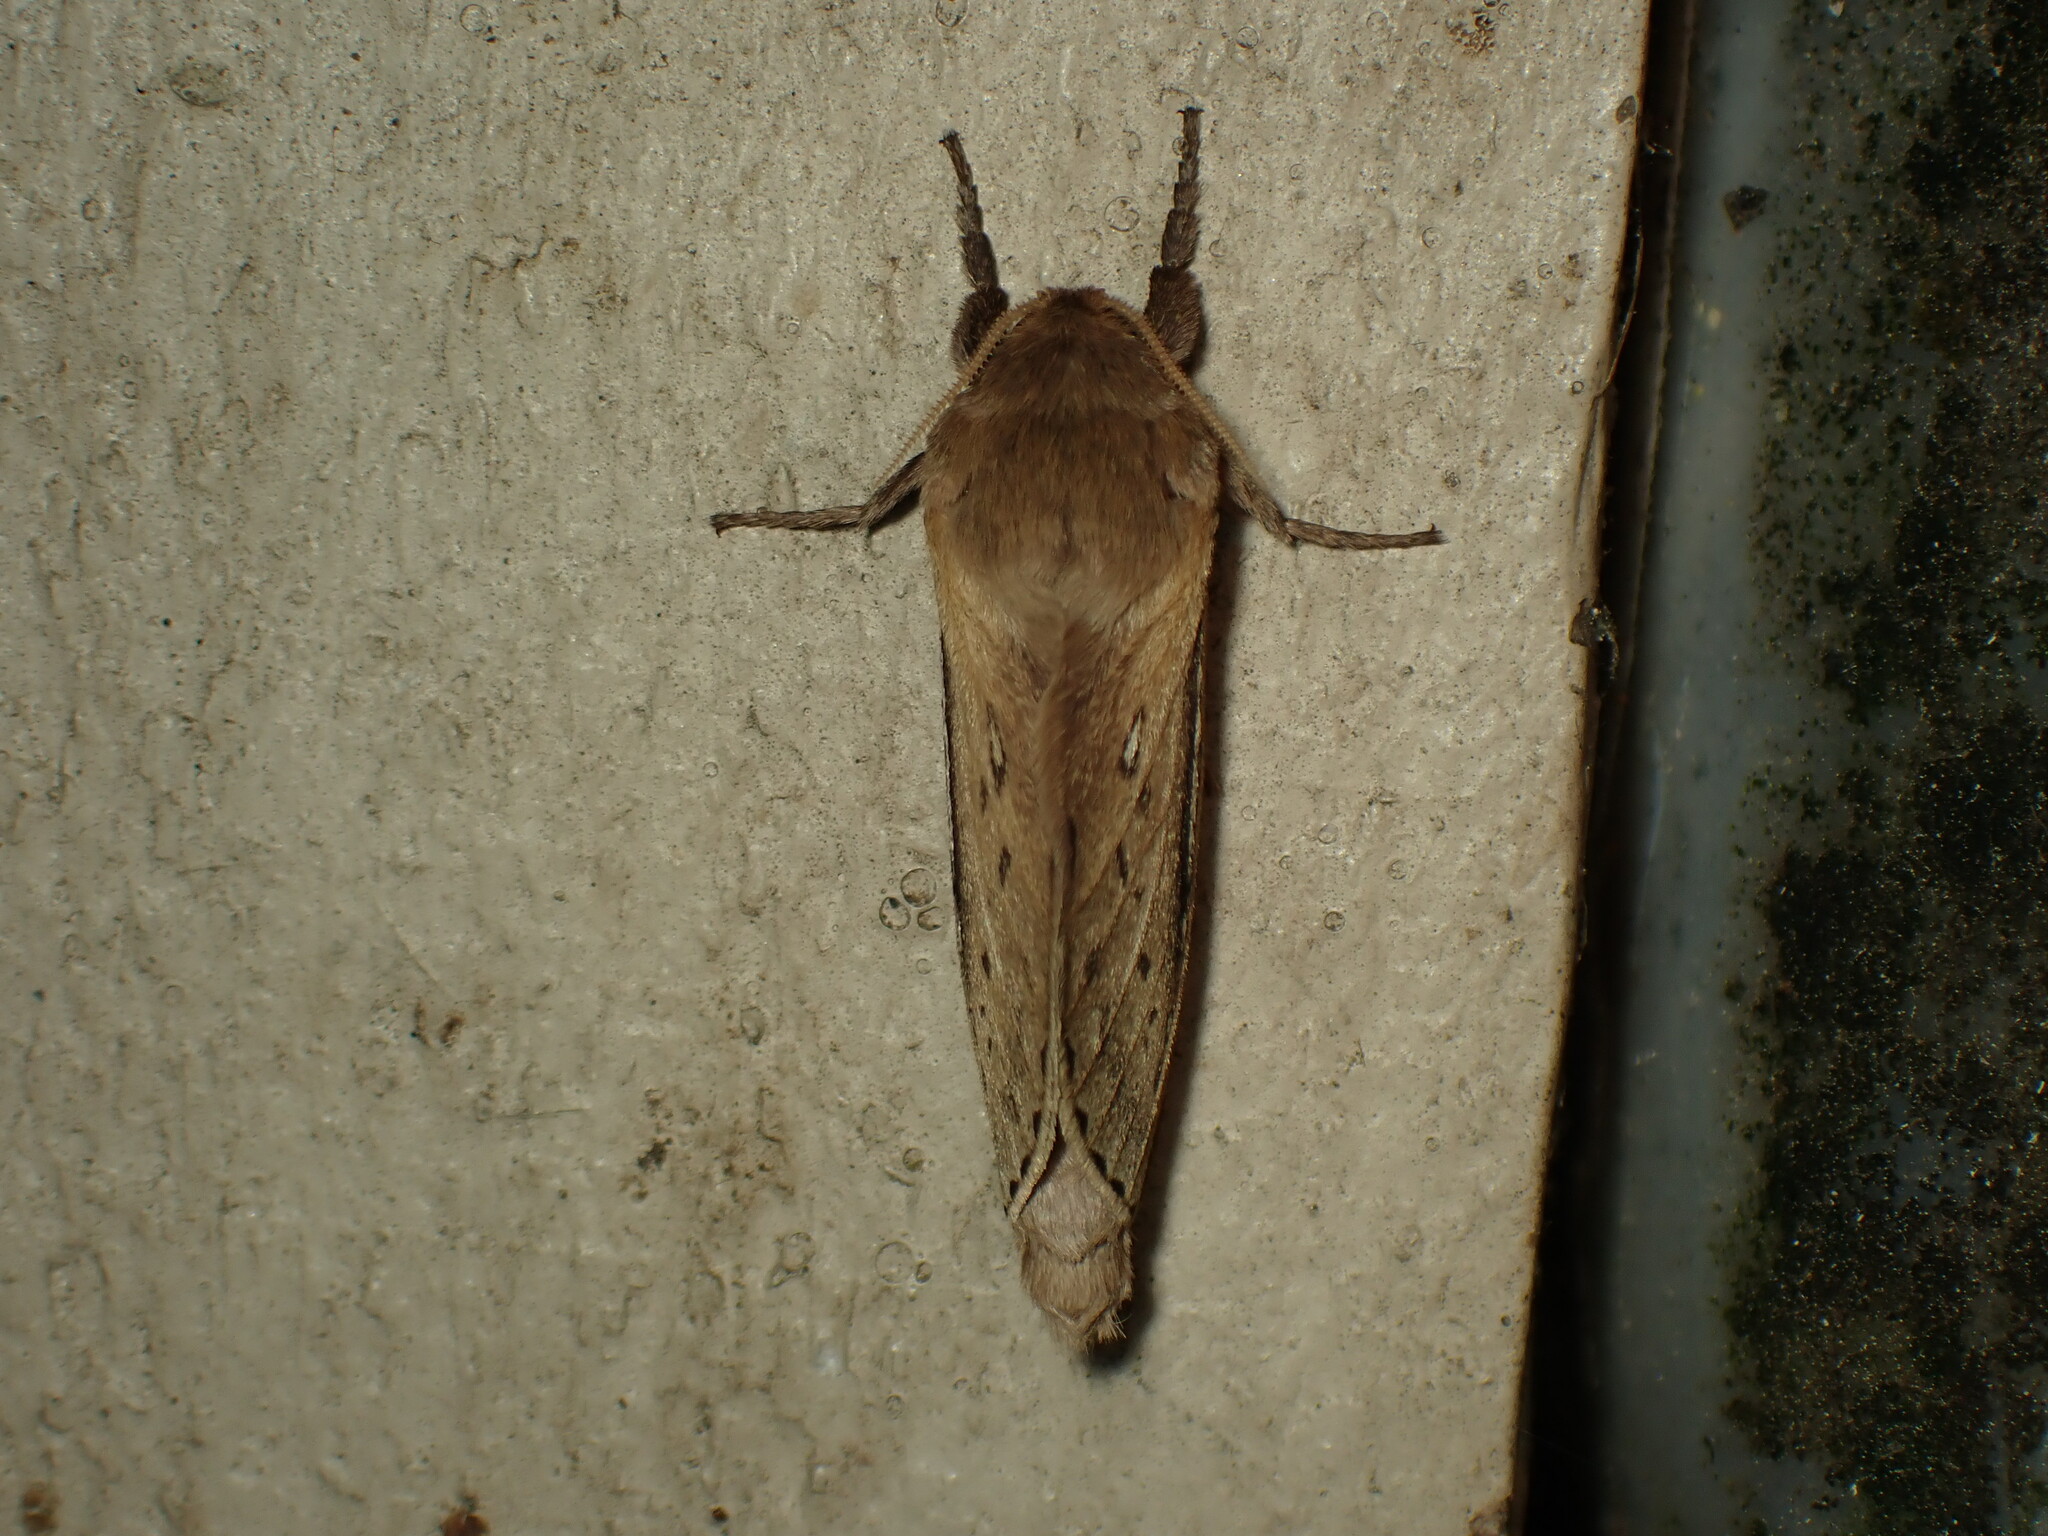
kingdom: Animalia
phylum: Arthropoda
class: Insecta
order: Lepidoptera
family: Hepialidae
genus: Wiseana
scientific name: Wiseana umbraculatus
